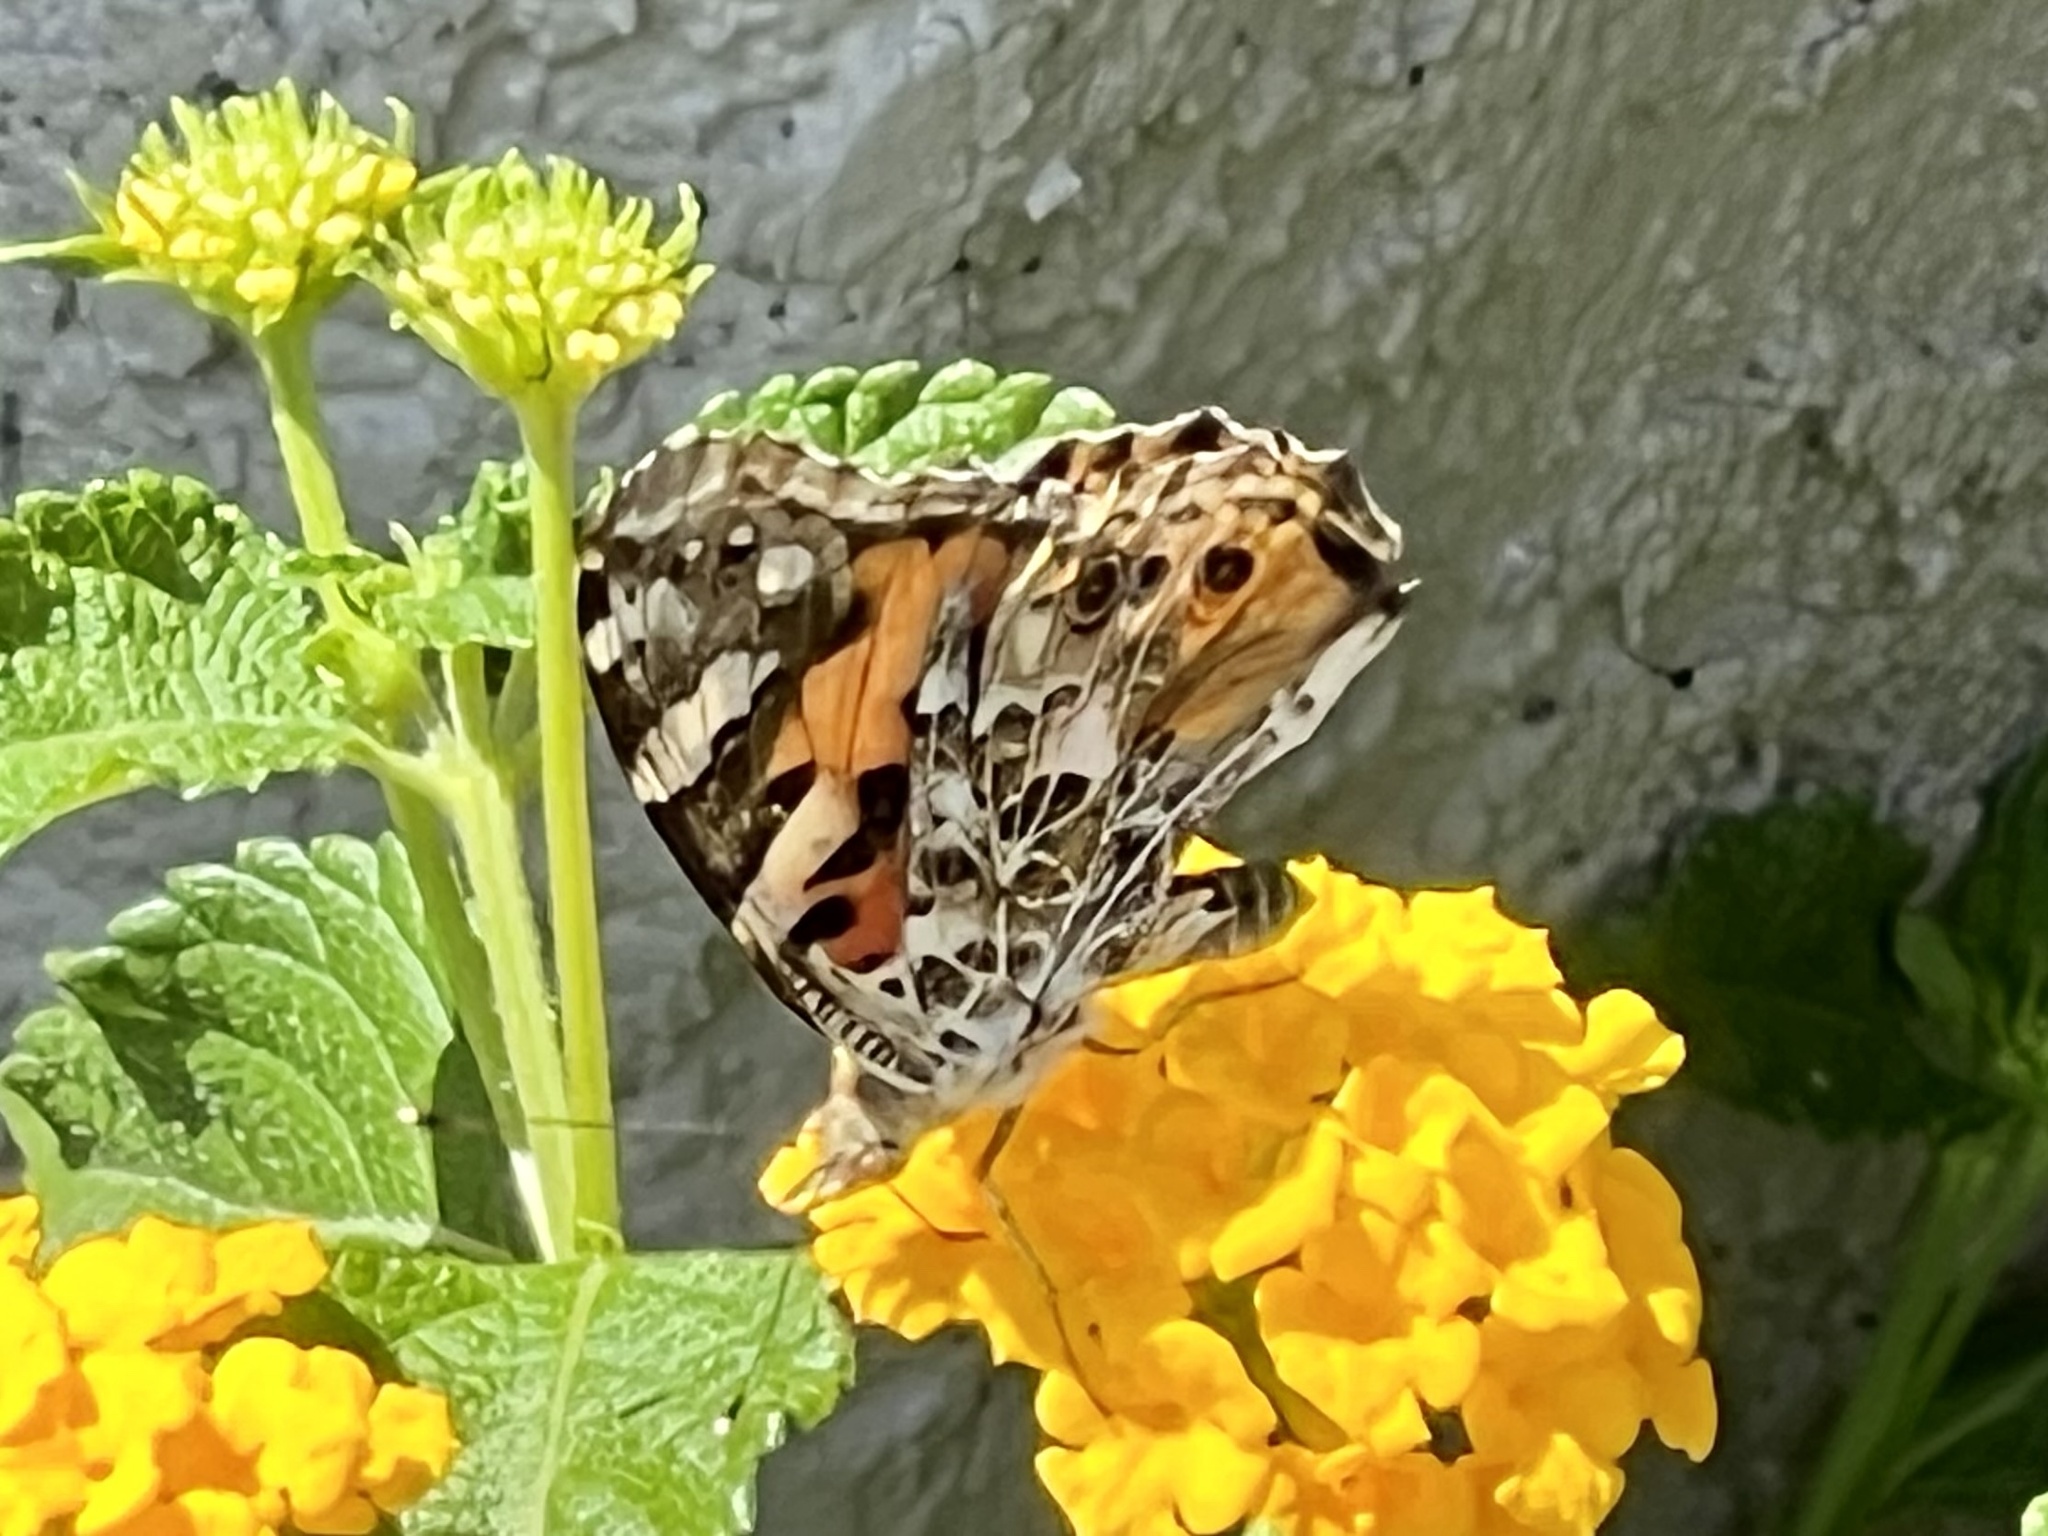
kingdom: Animalia
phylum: Arthropoda
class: Insecta
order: Lepidoptera
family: Nymphalidae
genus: Vanessa
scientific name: Vanessa cardui
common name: Painted lady
